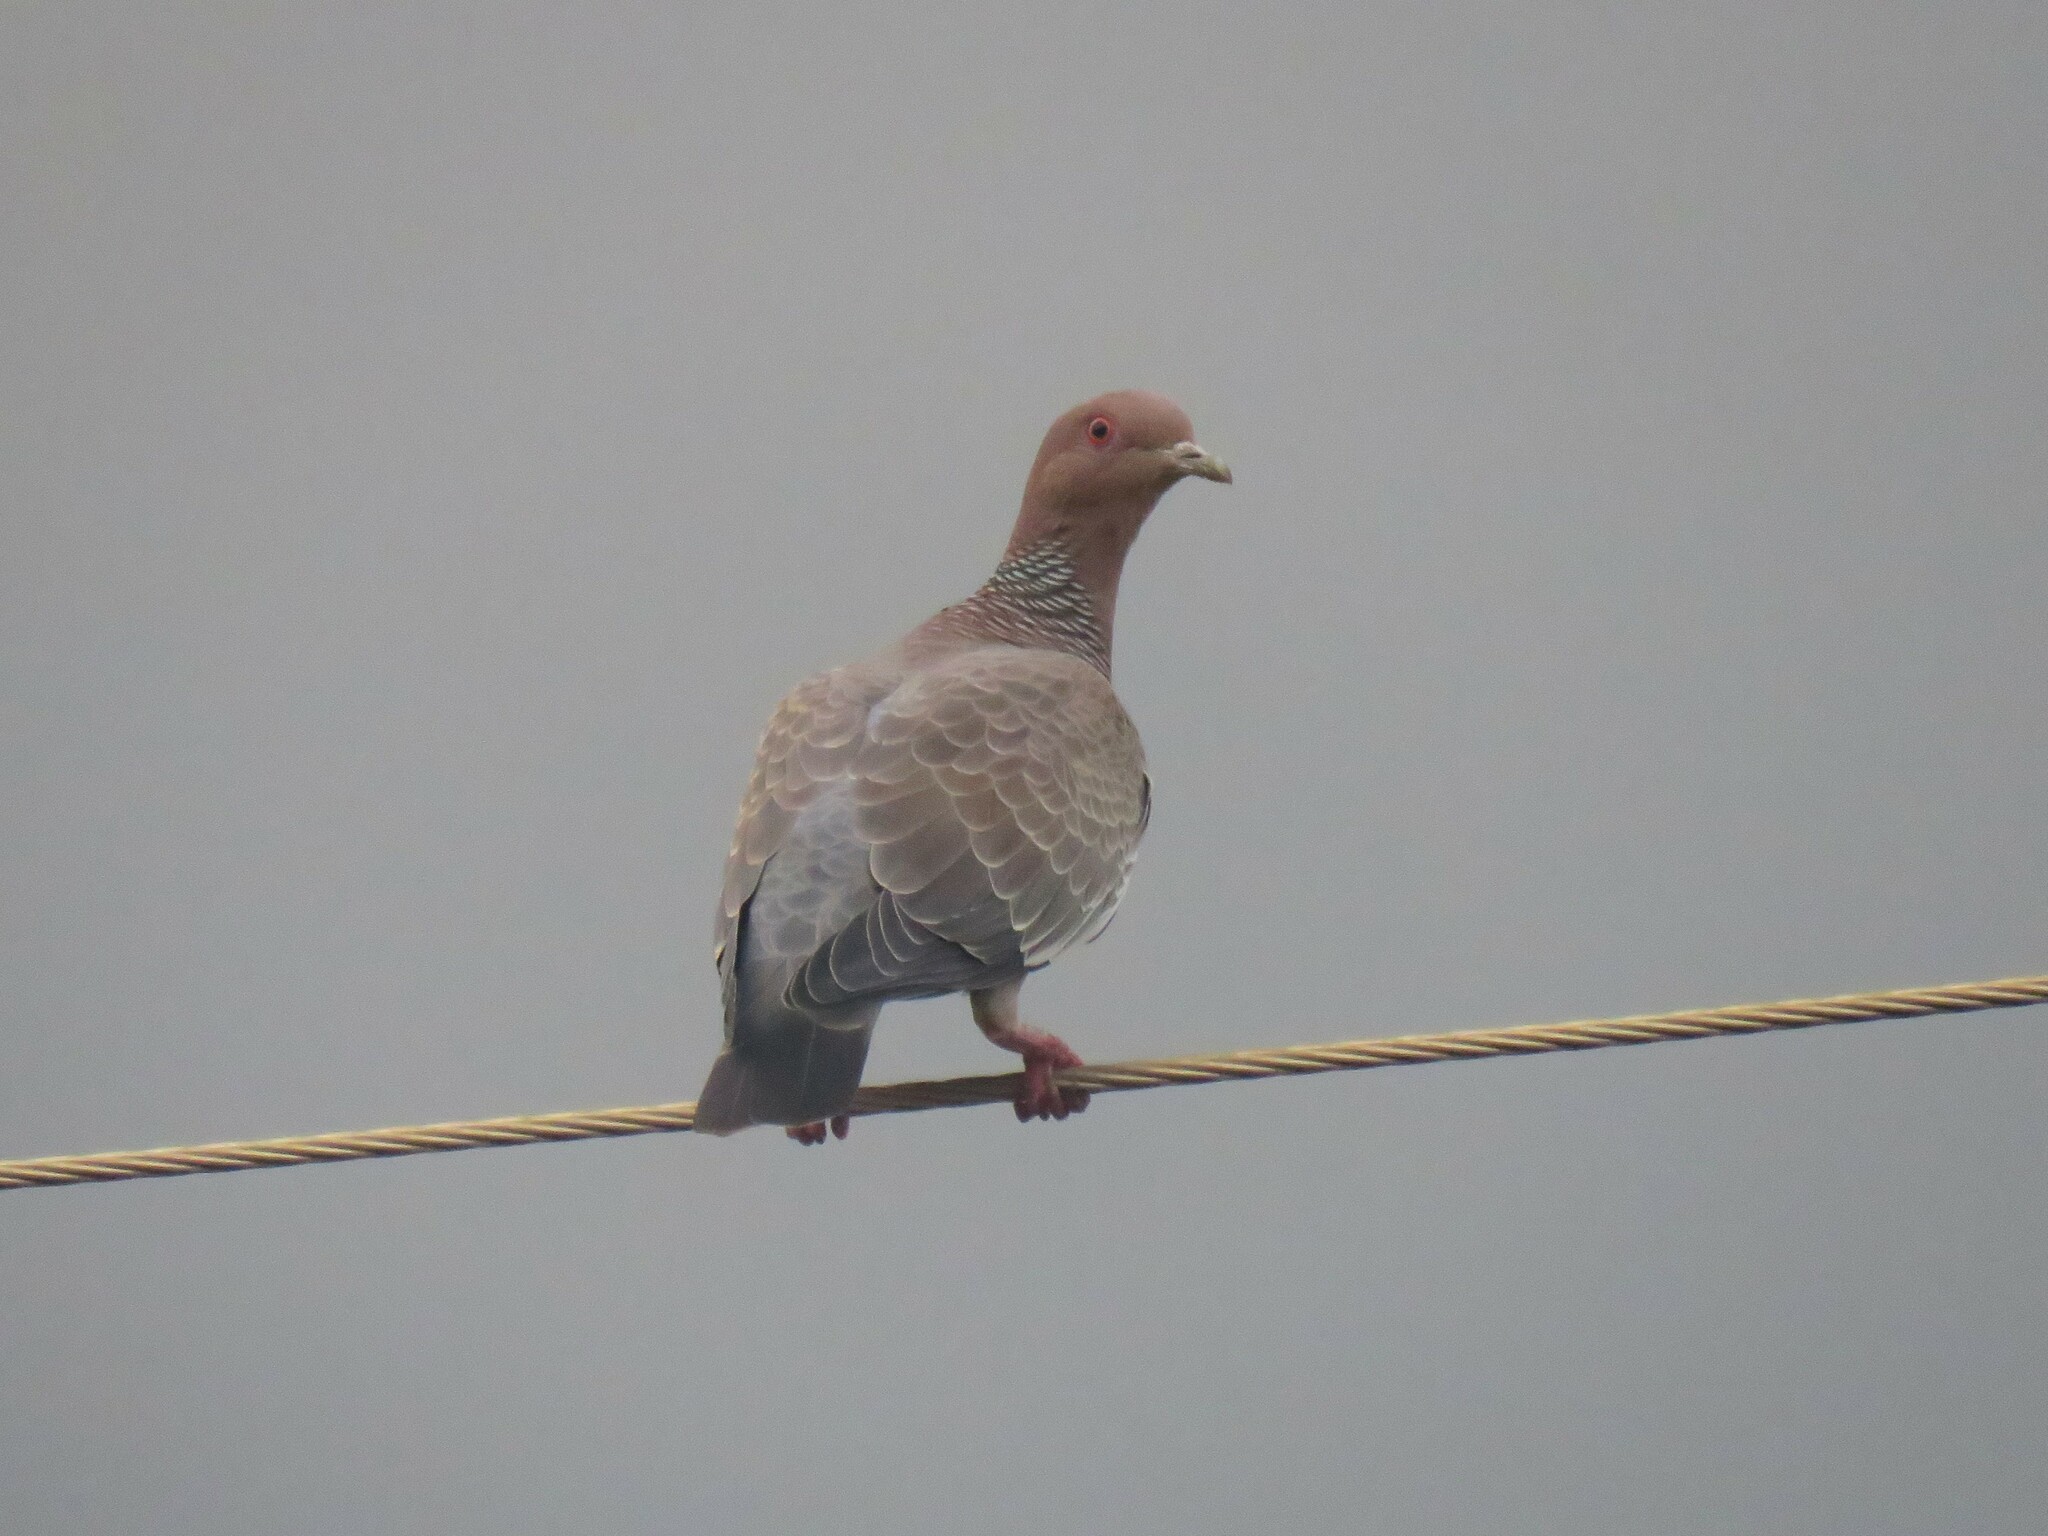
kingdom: Animalia
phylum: Chordata
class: Aves
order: Columbiformes
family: Columbidae
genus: Patagioenas
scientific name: Patagioenas picazuro
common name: Picazuro pigeon
